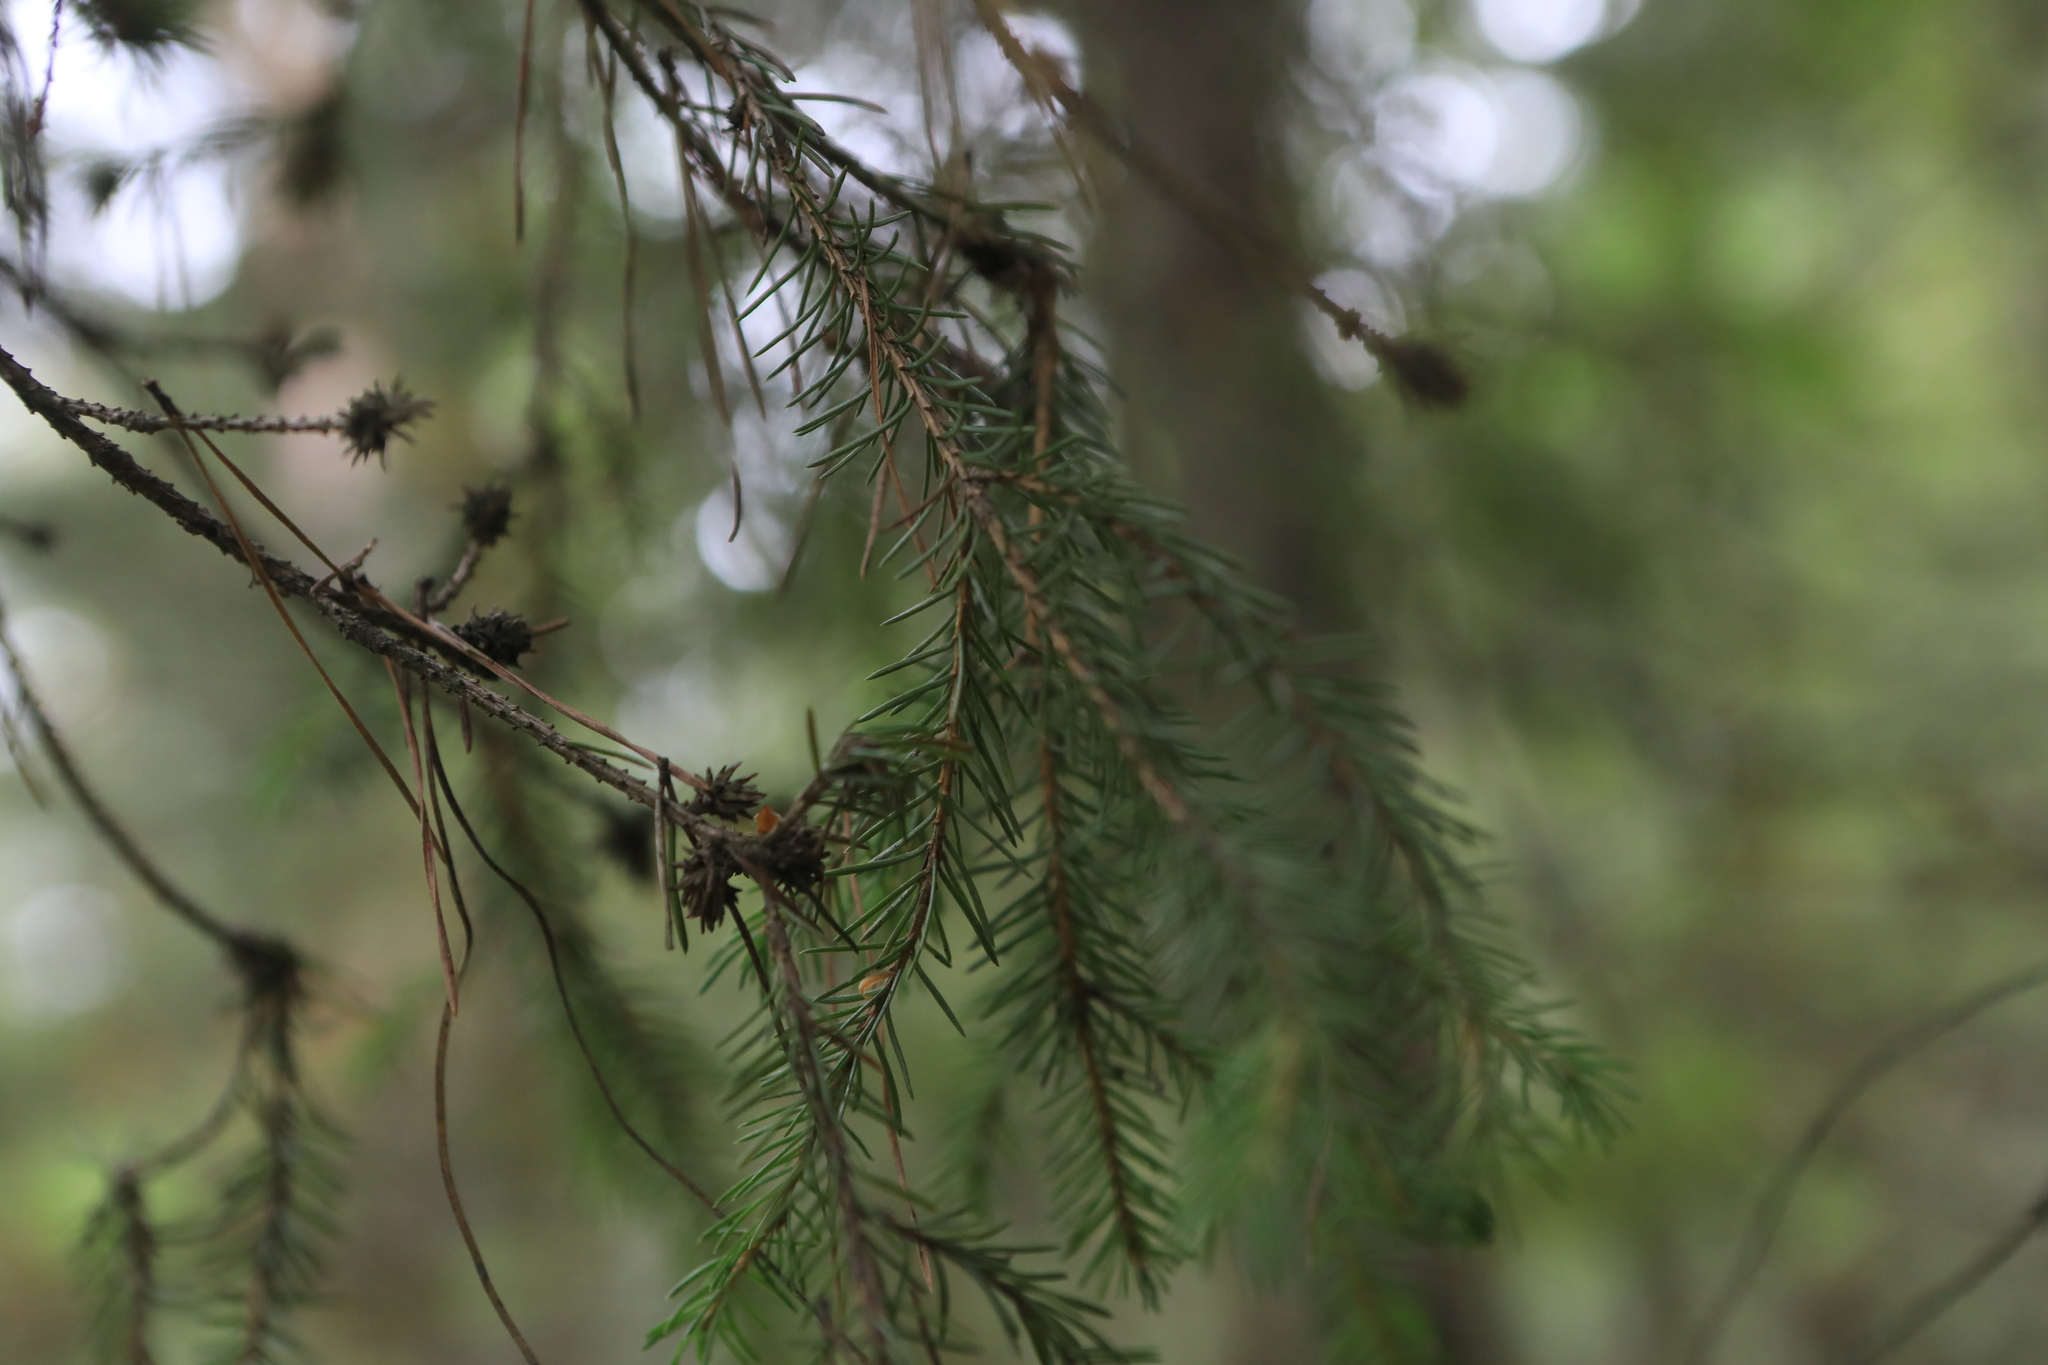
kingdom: Plantae
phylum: Tracheophyta
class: Pinopsida
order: Pinales
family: Pinaceae
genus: Picea
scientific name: Picea obovata
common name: Siberian spruce
